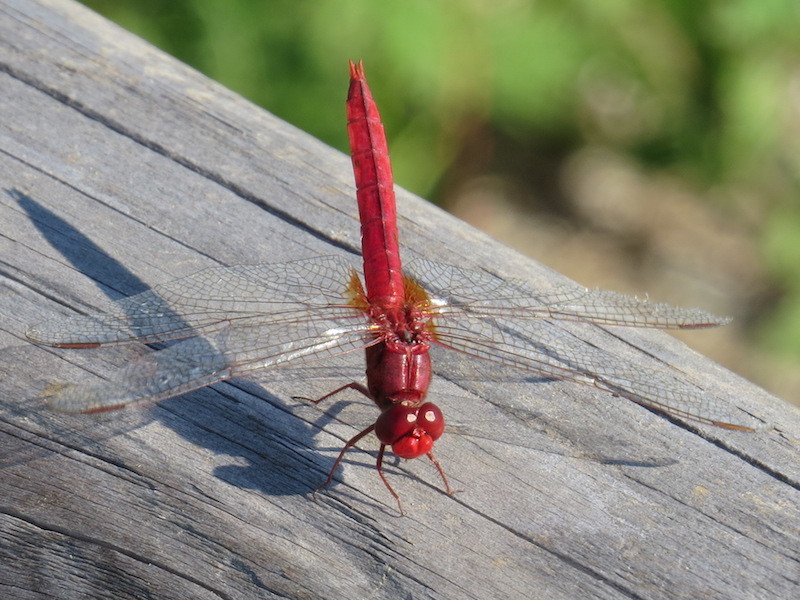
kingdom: Animalia
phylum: Arthropoda
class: Insecta
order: Odonata
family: Libellulidae
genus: Crocothemis
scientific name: Crocothemis servilia
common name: Scarlet skimmer
